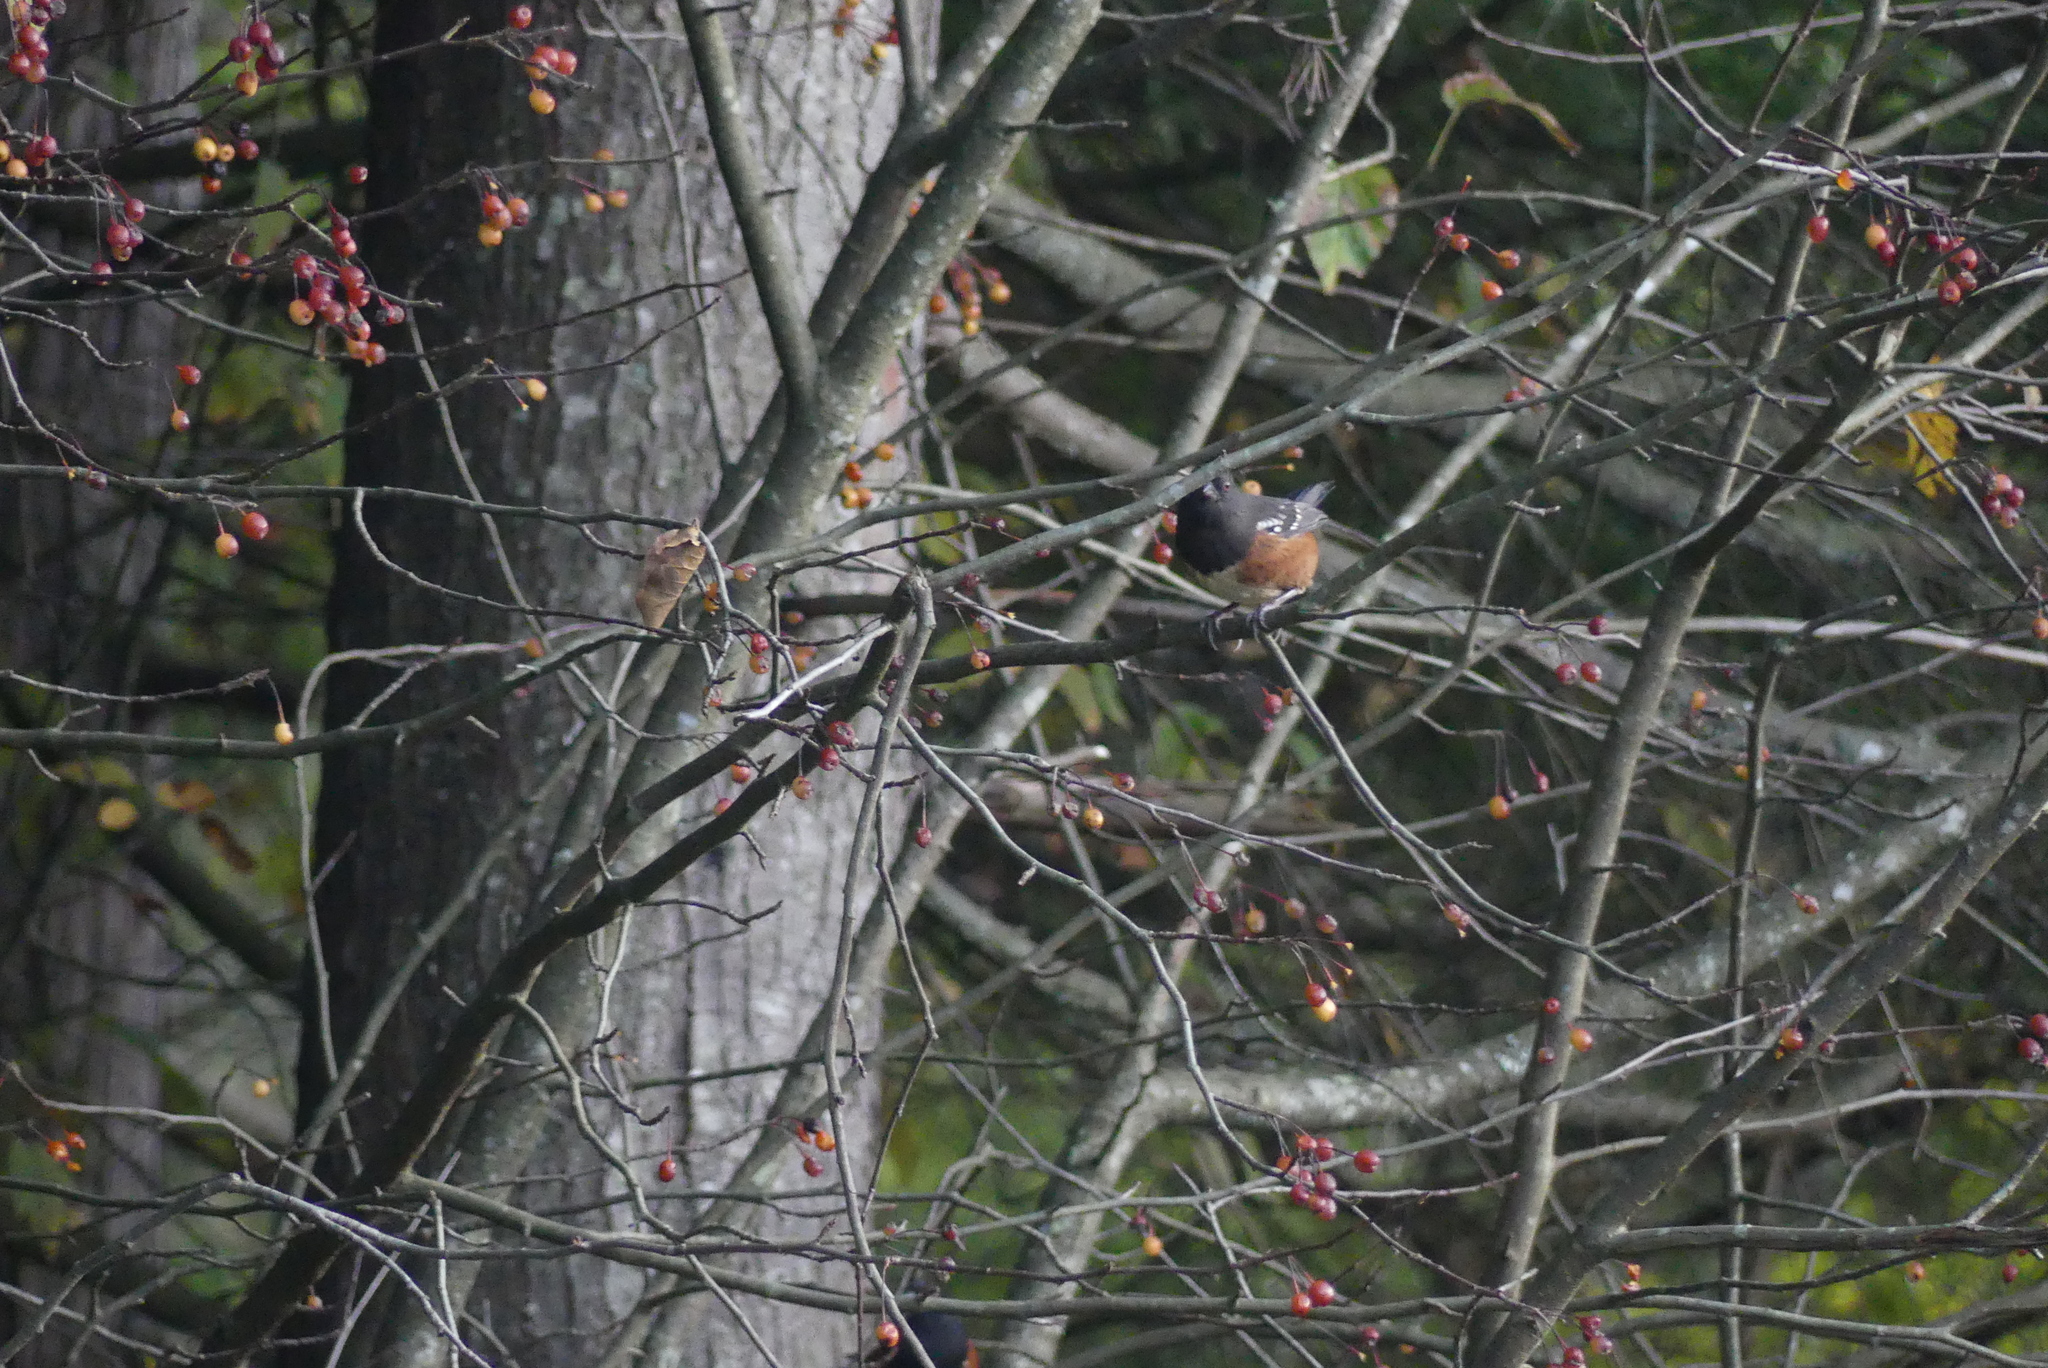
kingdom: Animalia
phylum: Chordata
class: Aves
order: Passeriformes
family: Passerellidae
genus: Pipilo
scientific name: Pipilo maculatus
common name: Spotted towhee
